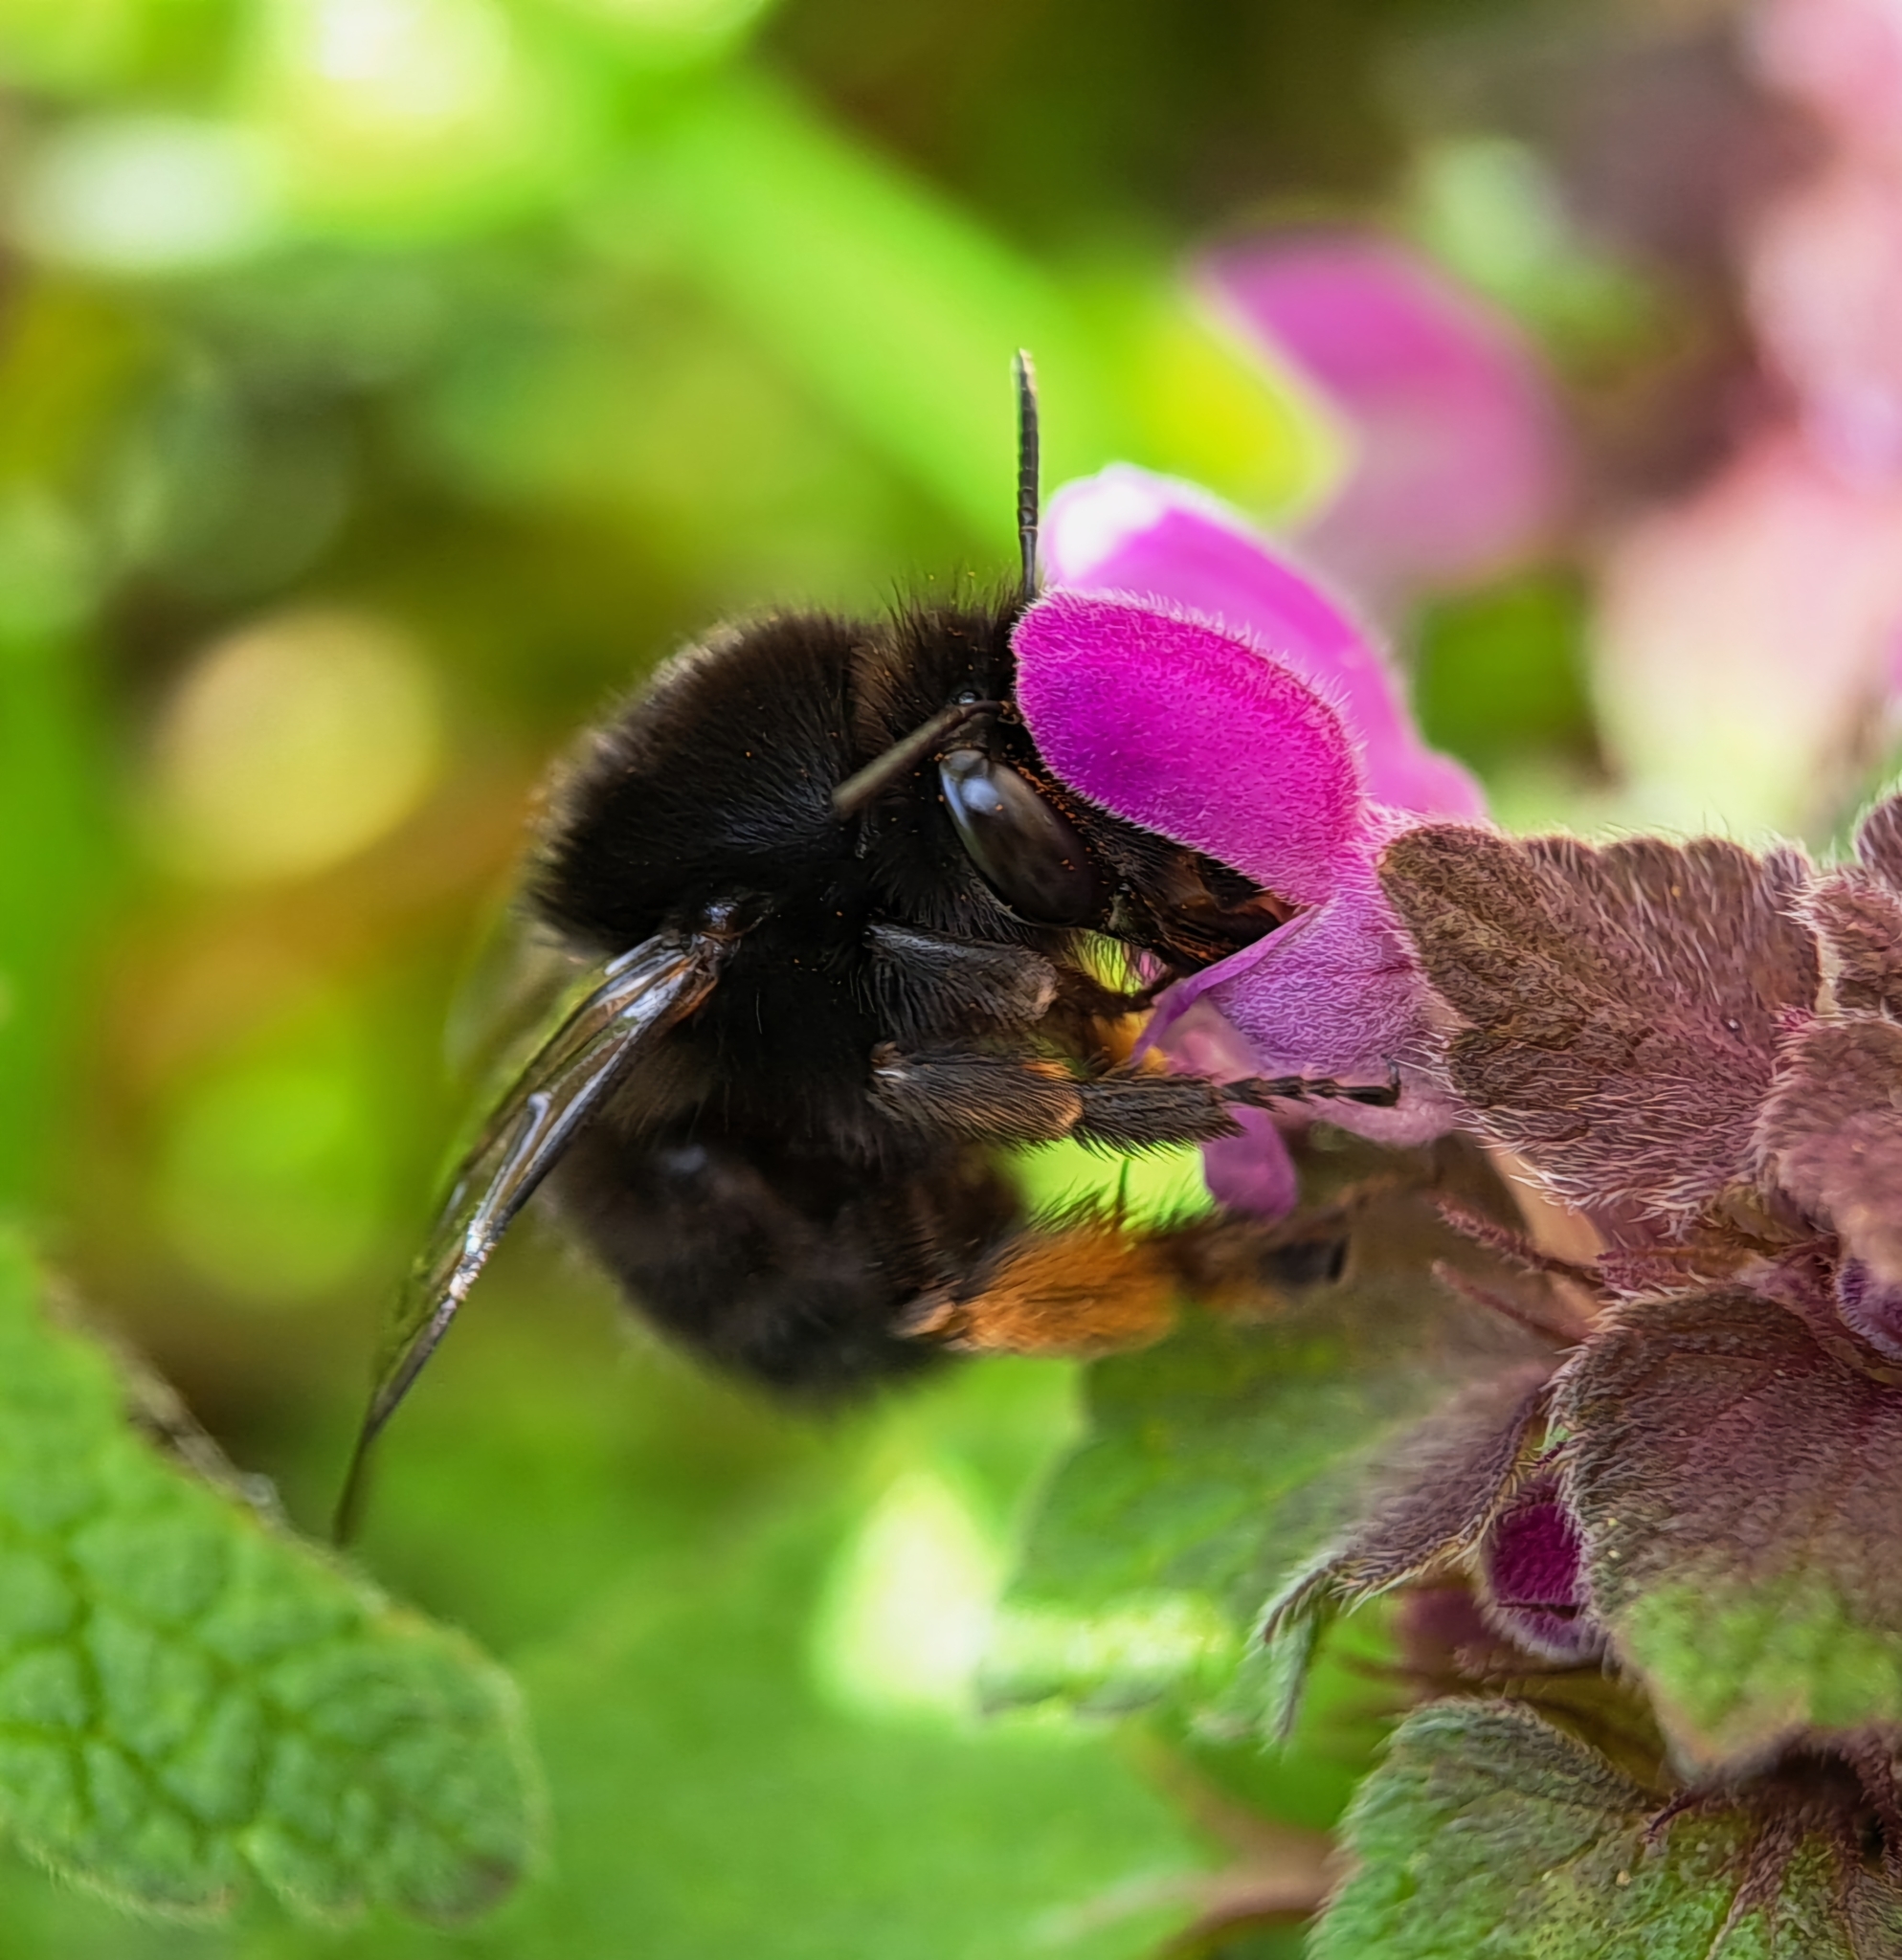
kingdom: Animalia
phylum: Arthropoda
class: Insecta
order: Hymenoptera
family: Apidae
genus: Anthophora
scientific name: Anthophora plumipes
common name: Hairy-footed flower bee
